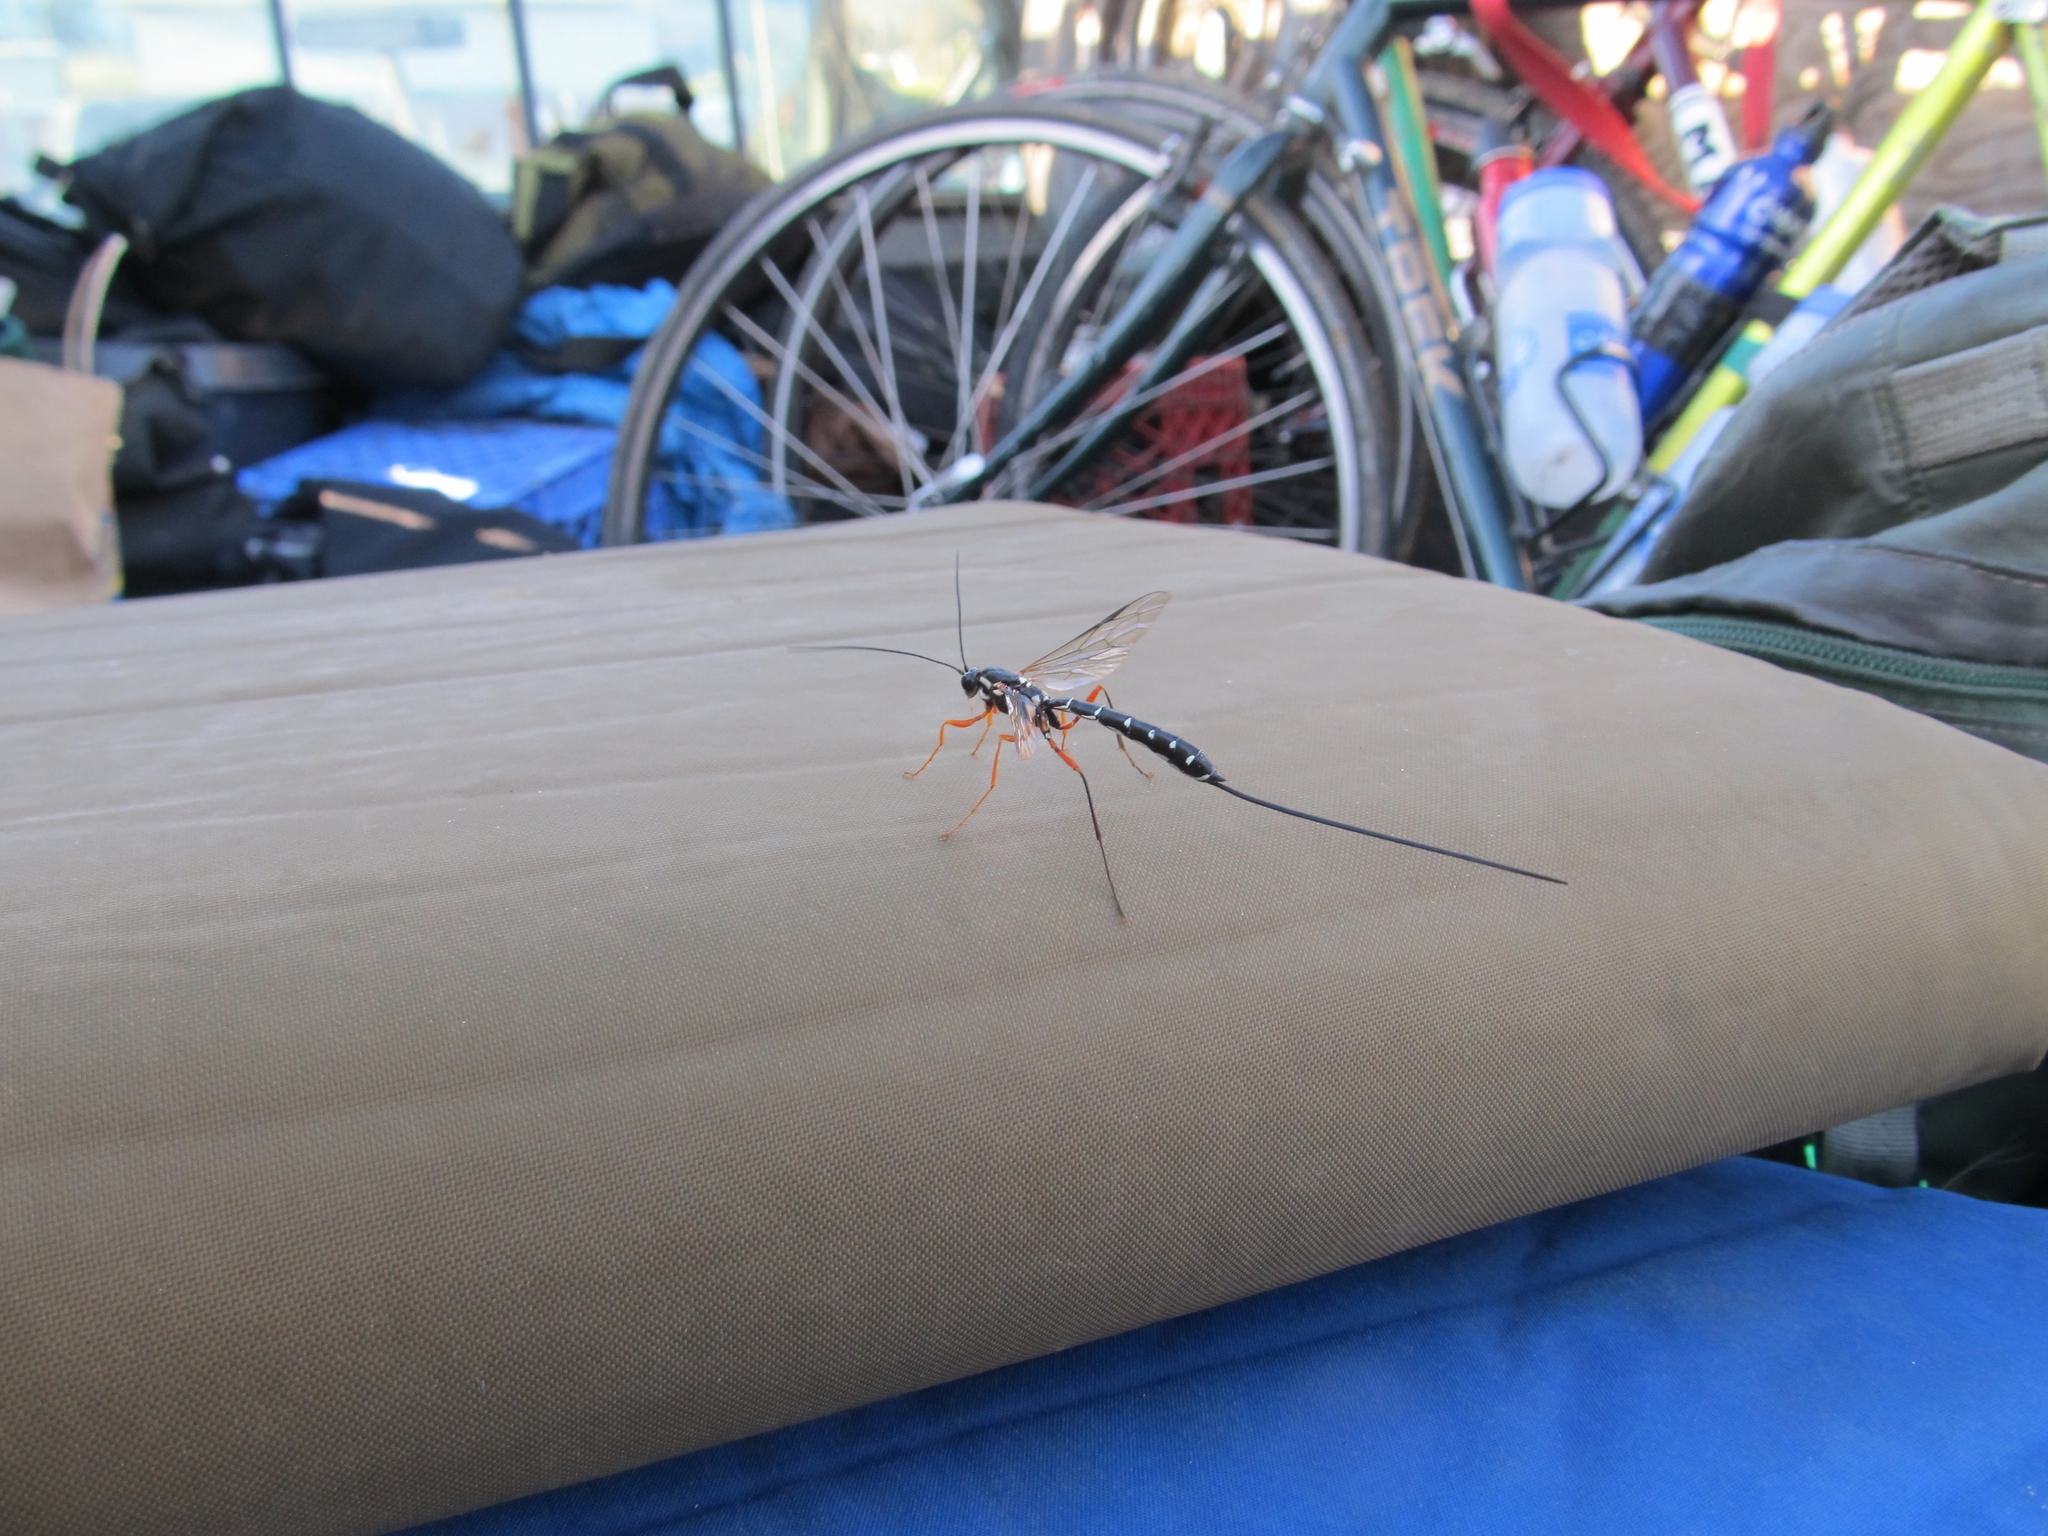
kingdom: Animalia
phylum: Arthropoda
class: Insecta
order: Hymenoptera
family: Ichneumonidae
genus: Rhyssa
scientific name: Rhyssa alaskensis
